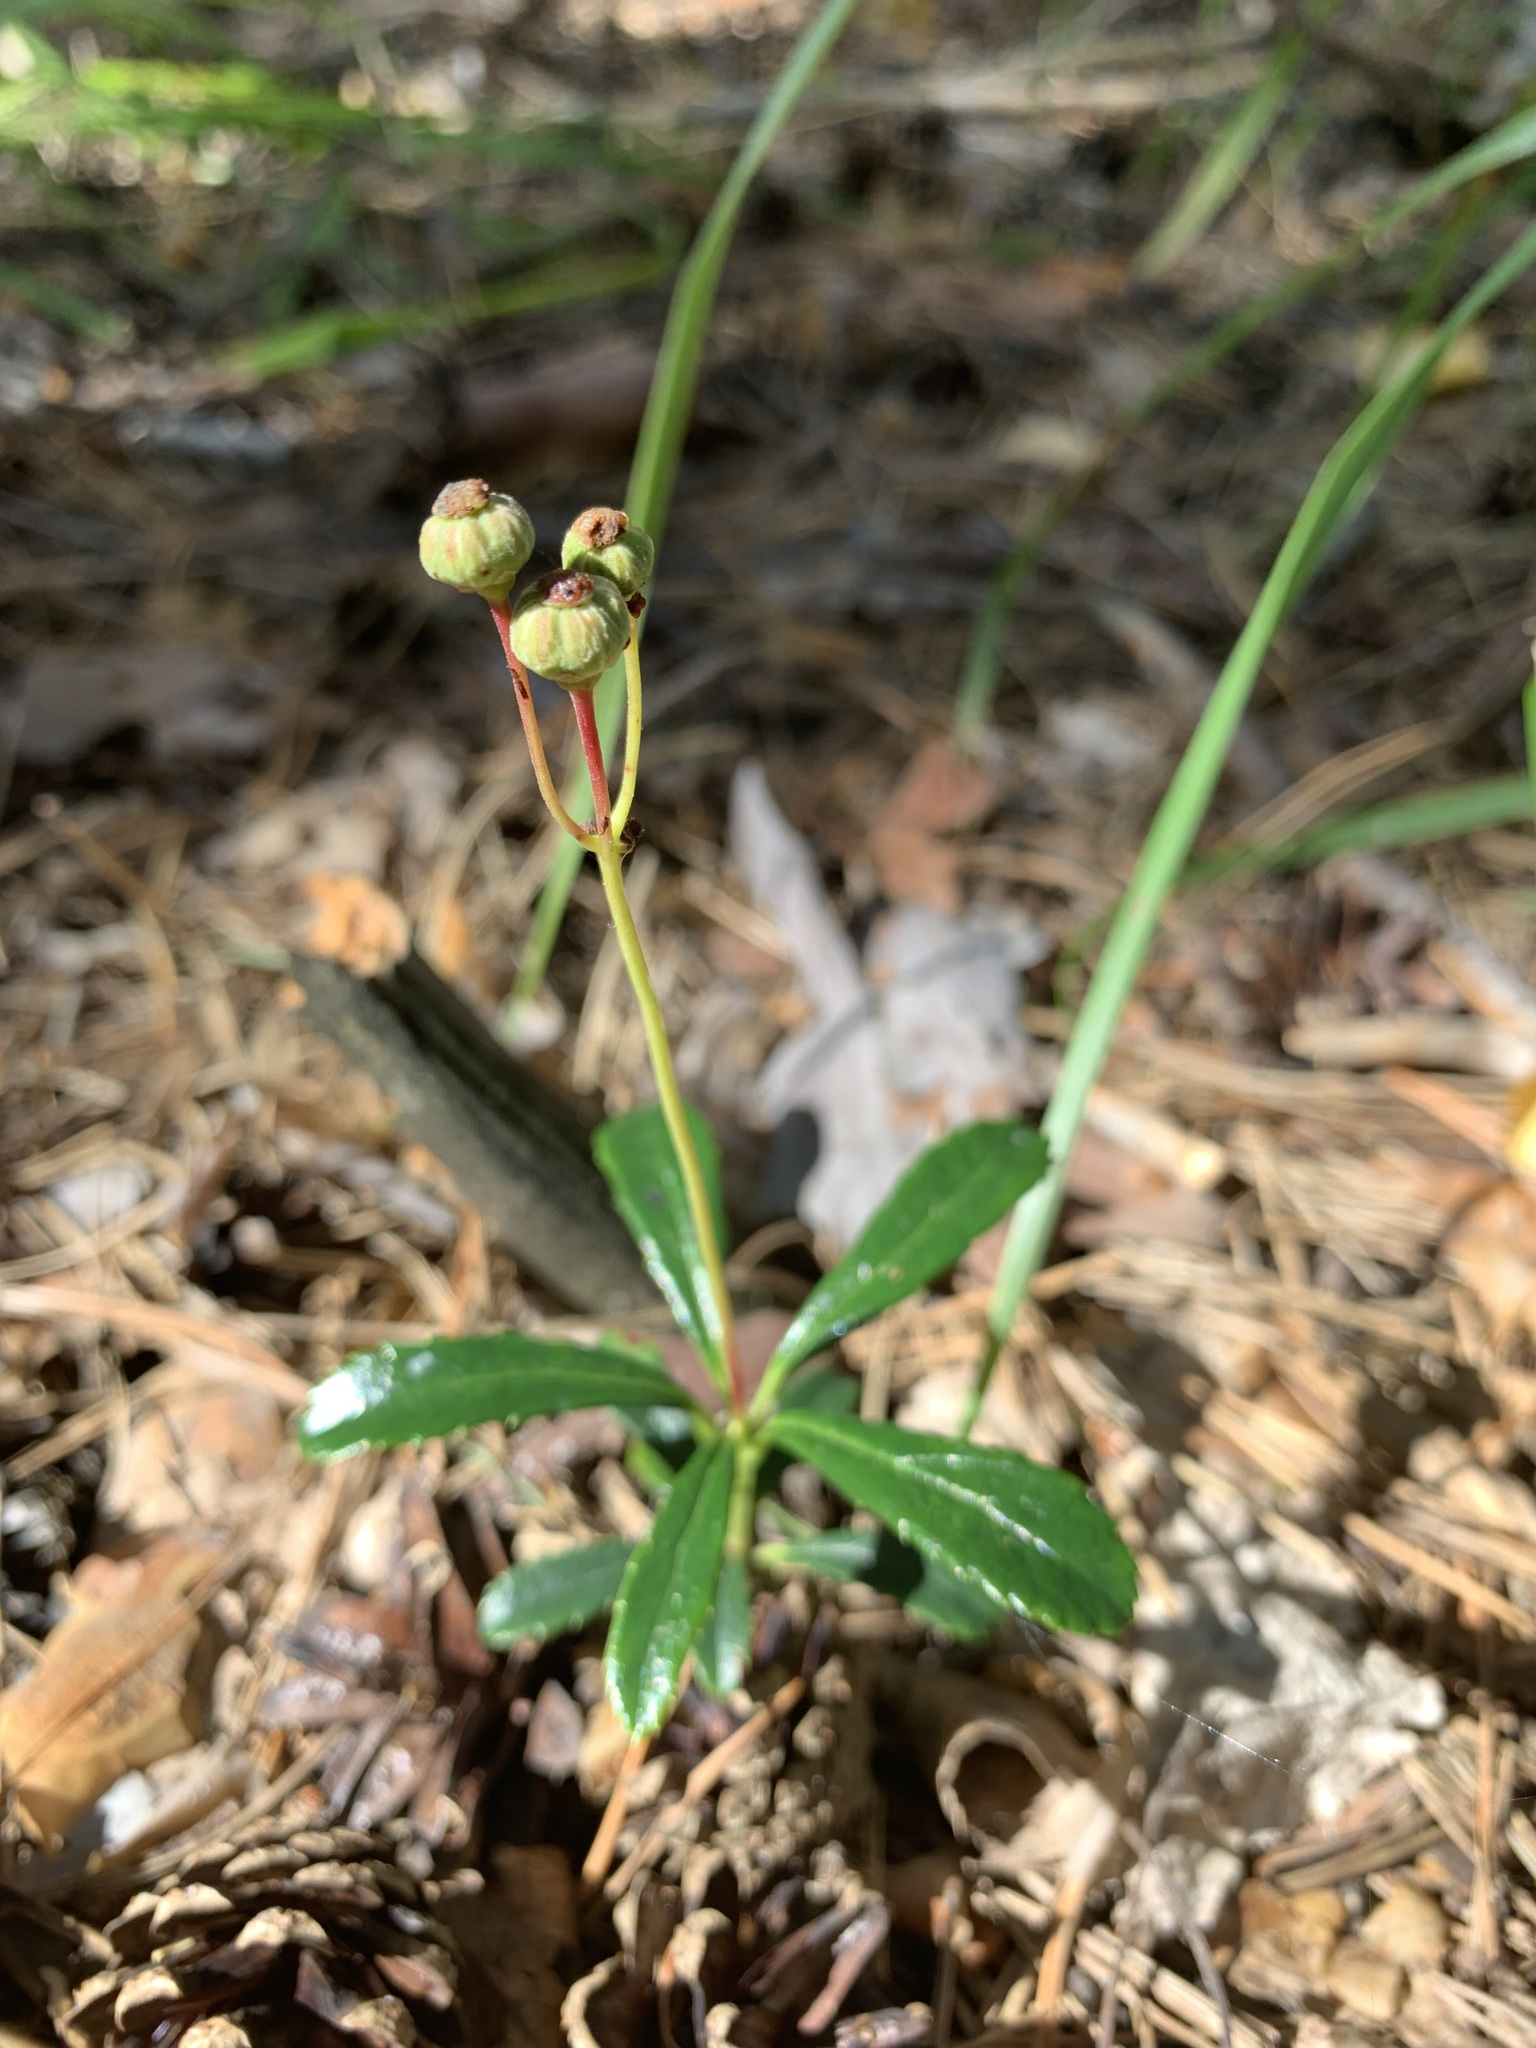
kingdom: Plantae
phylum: Tracheophyta
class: Magnoliopsida
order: Ericales
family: Ericaceae
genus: Chimaphila
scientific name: Chimaphila umbellata
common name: Pipsissewa
